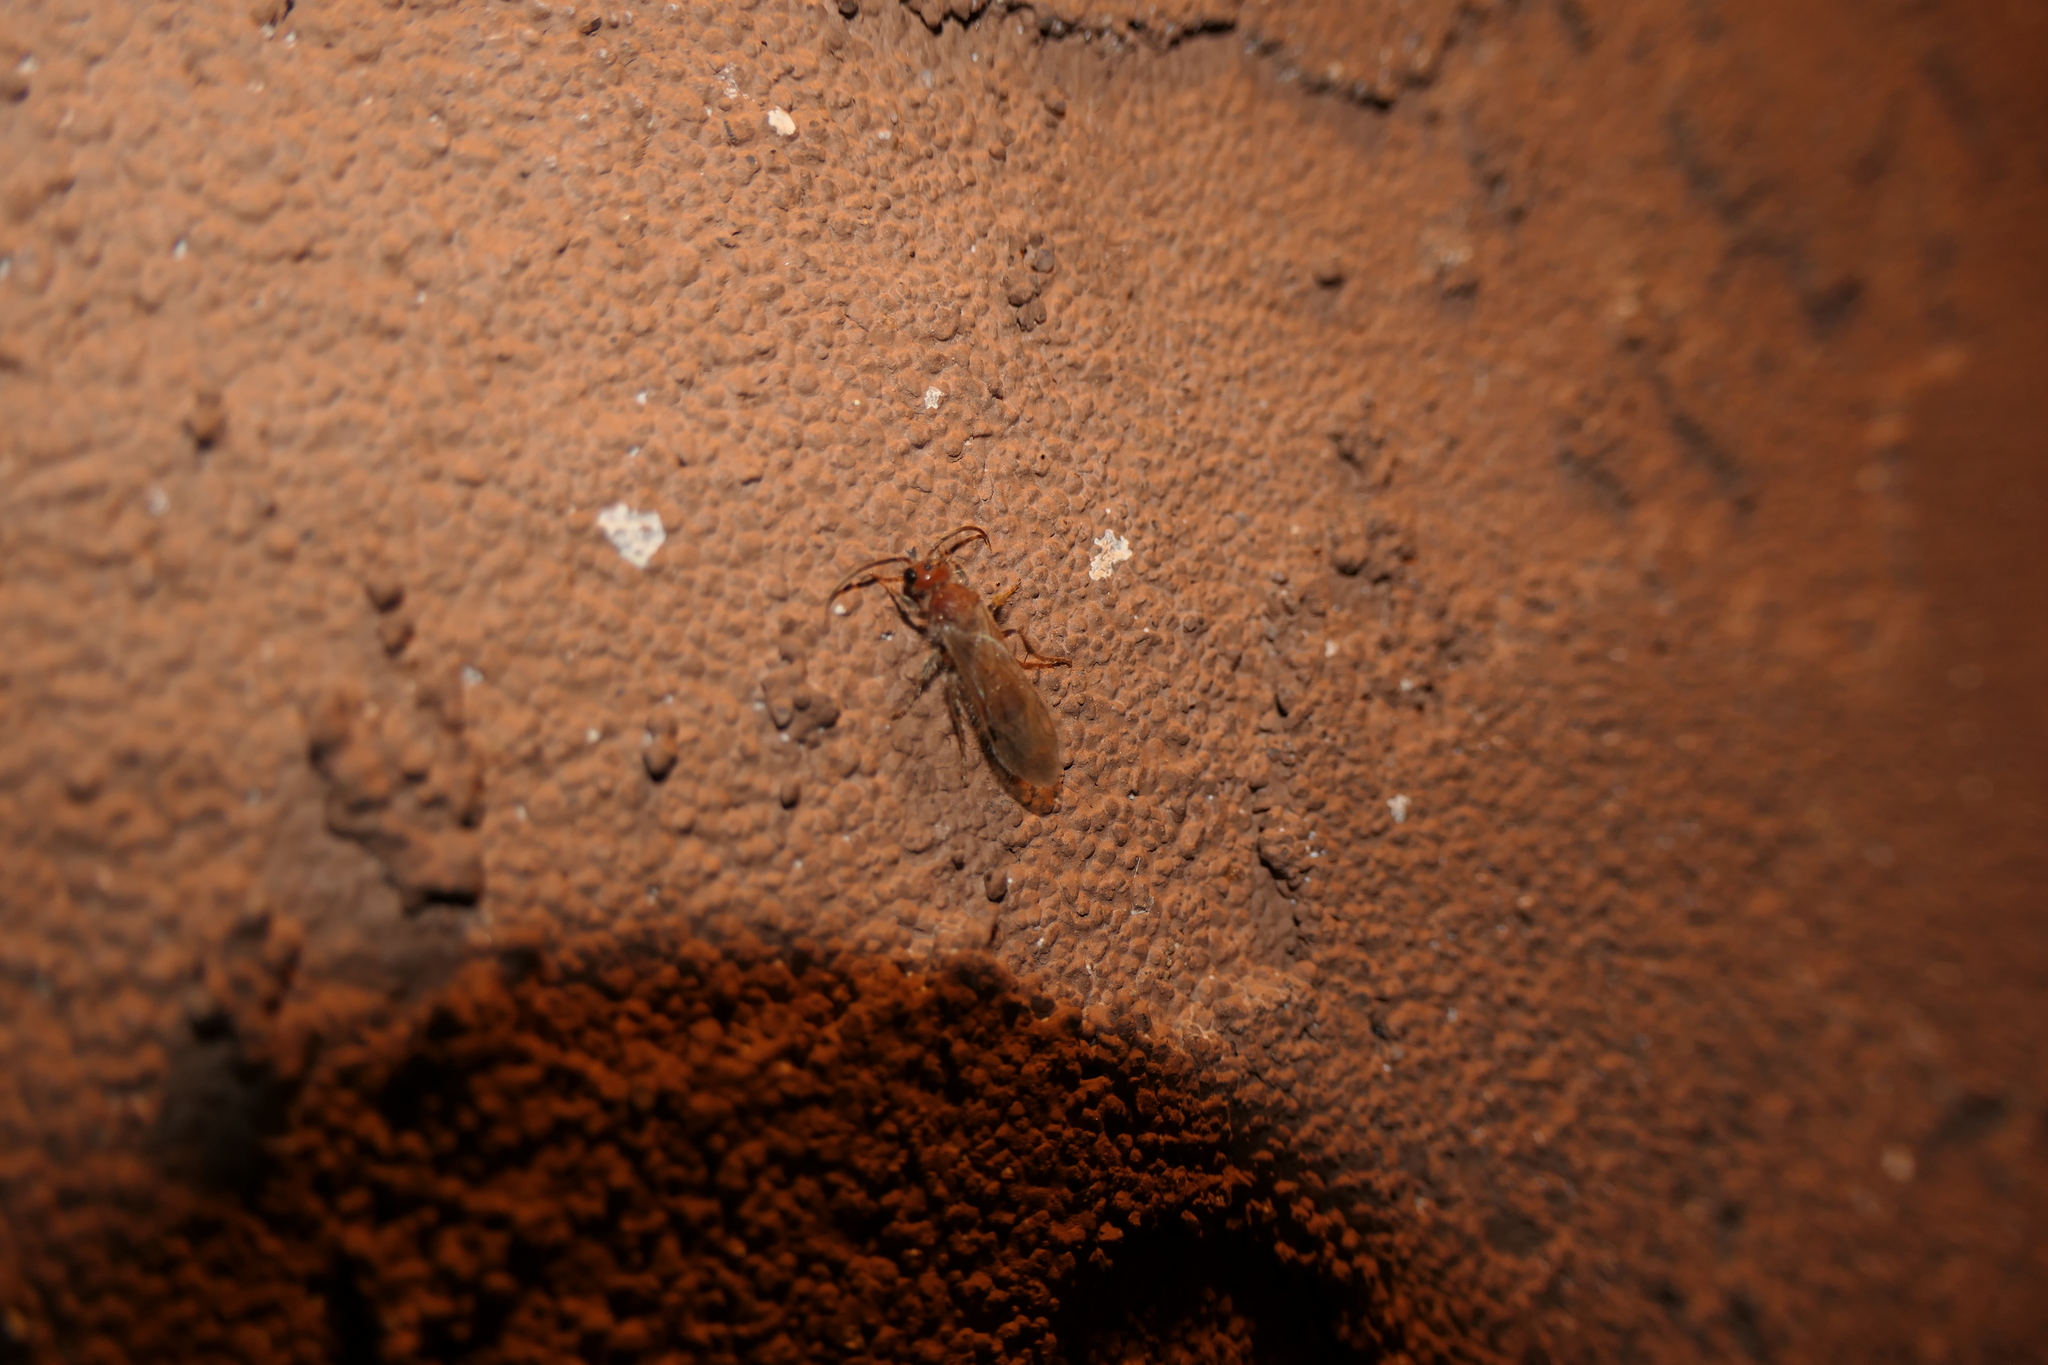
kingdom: Animalia
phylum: Arthropoda
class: Insecta
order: Hymenoptera
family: Mutillidae
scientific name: Mutillidae
